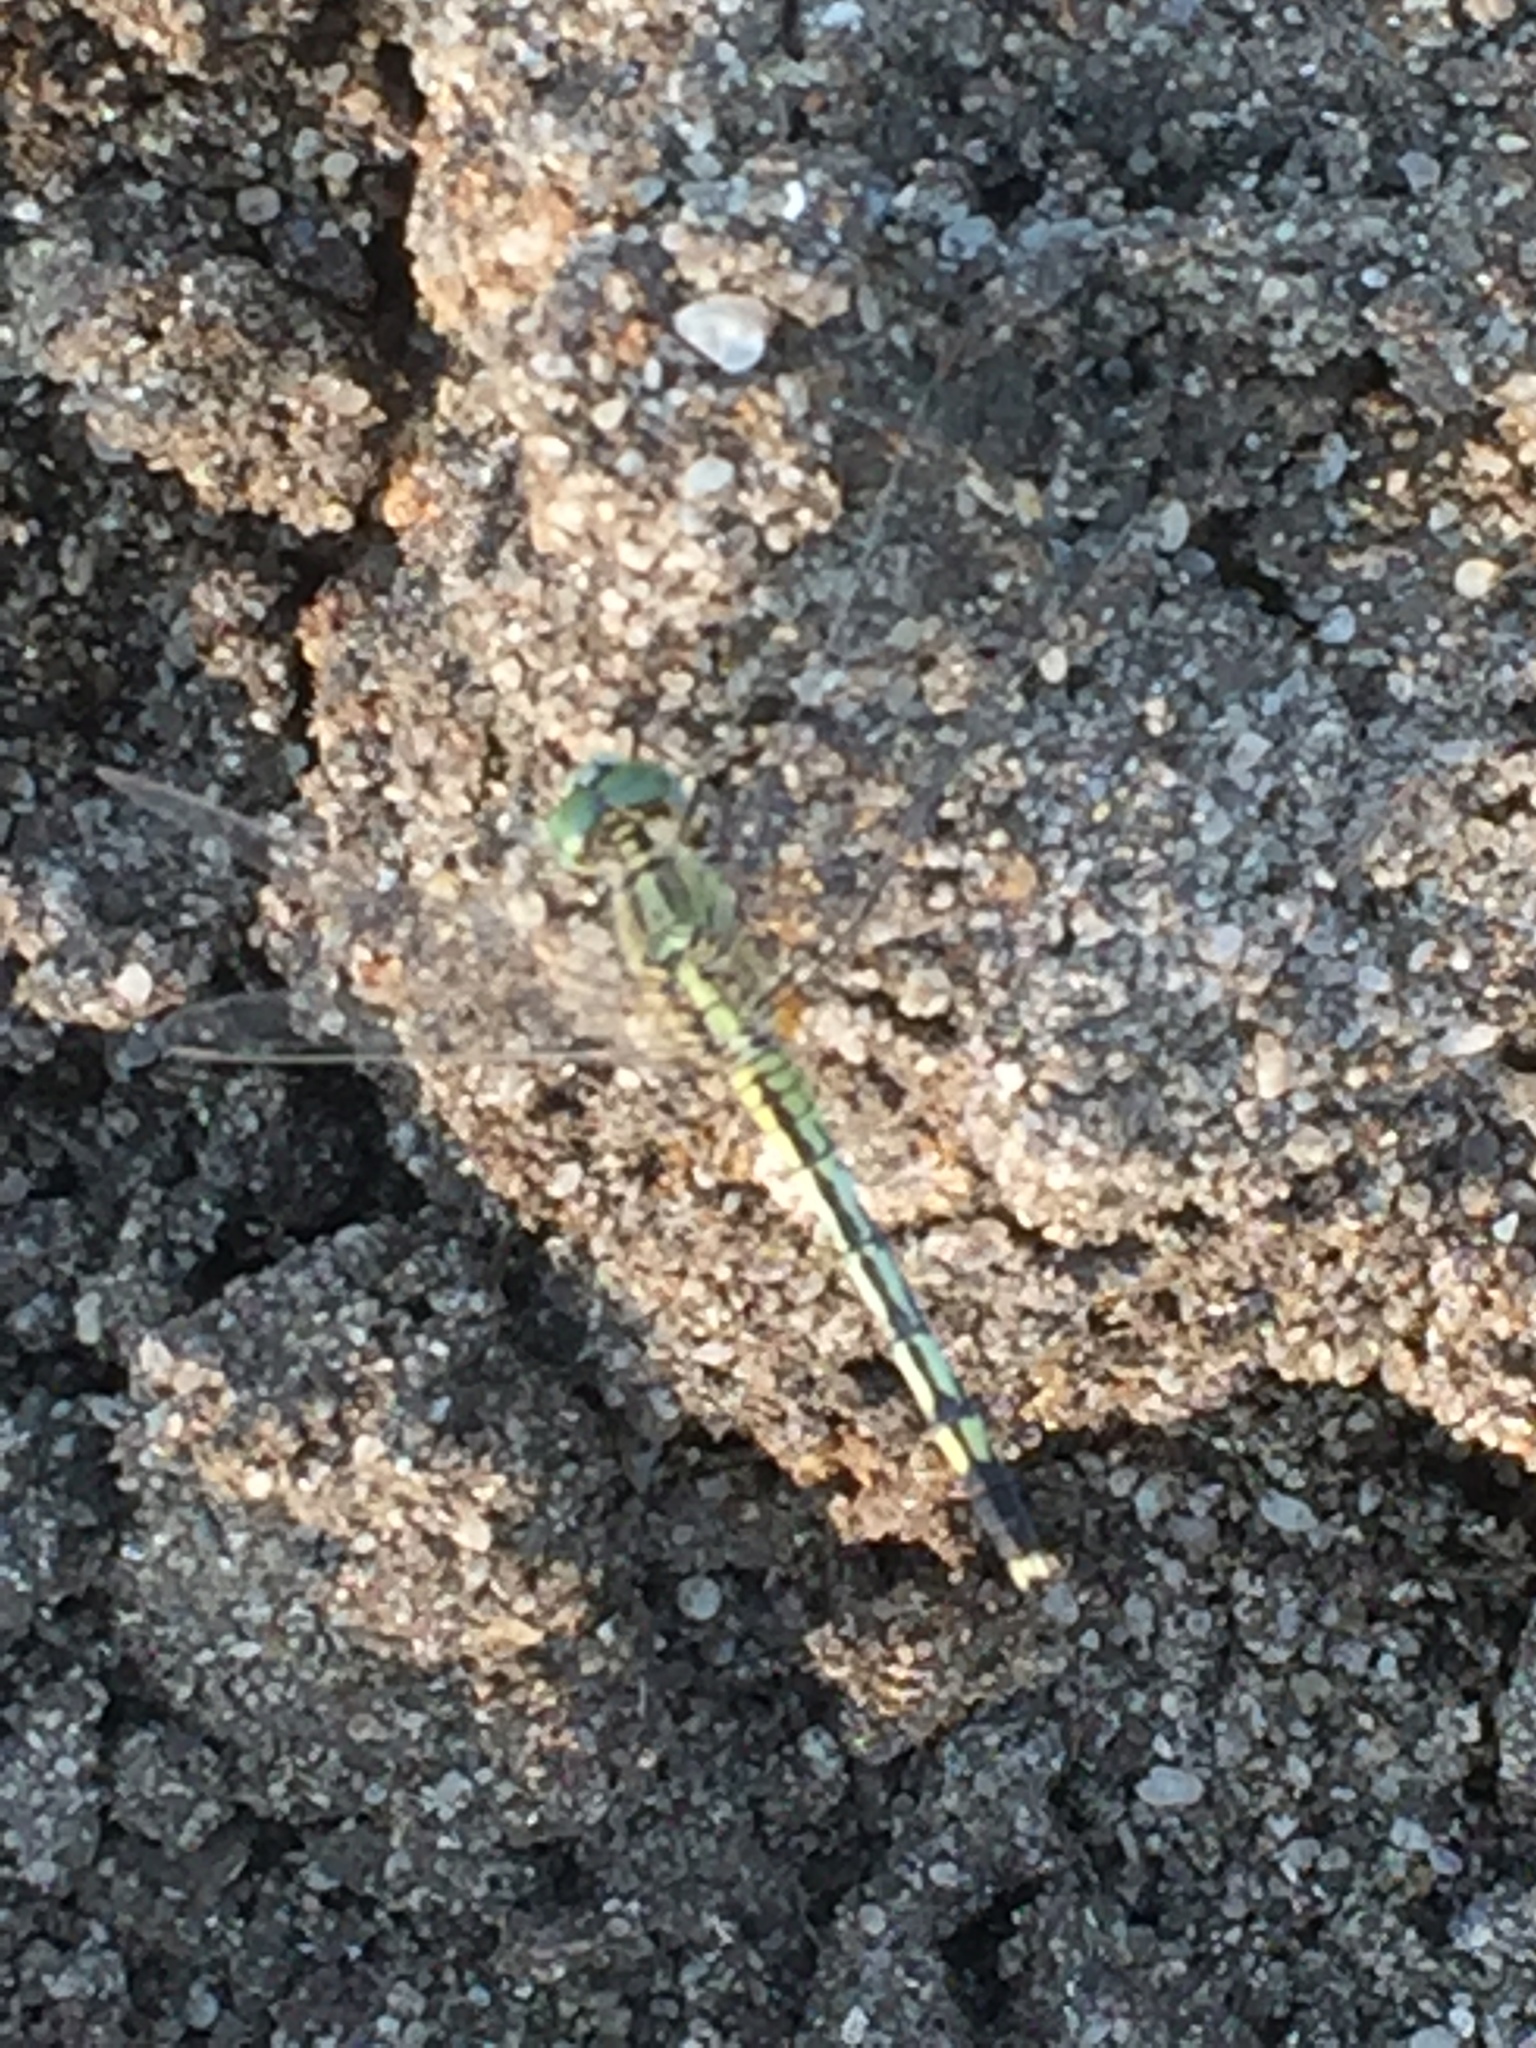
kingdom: Animalia
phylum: Arthropoda
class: Insecta
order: Odonata
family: Libellulidae
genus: Diplacodes
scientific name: Diplacodes trivialis
